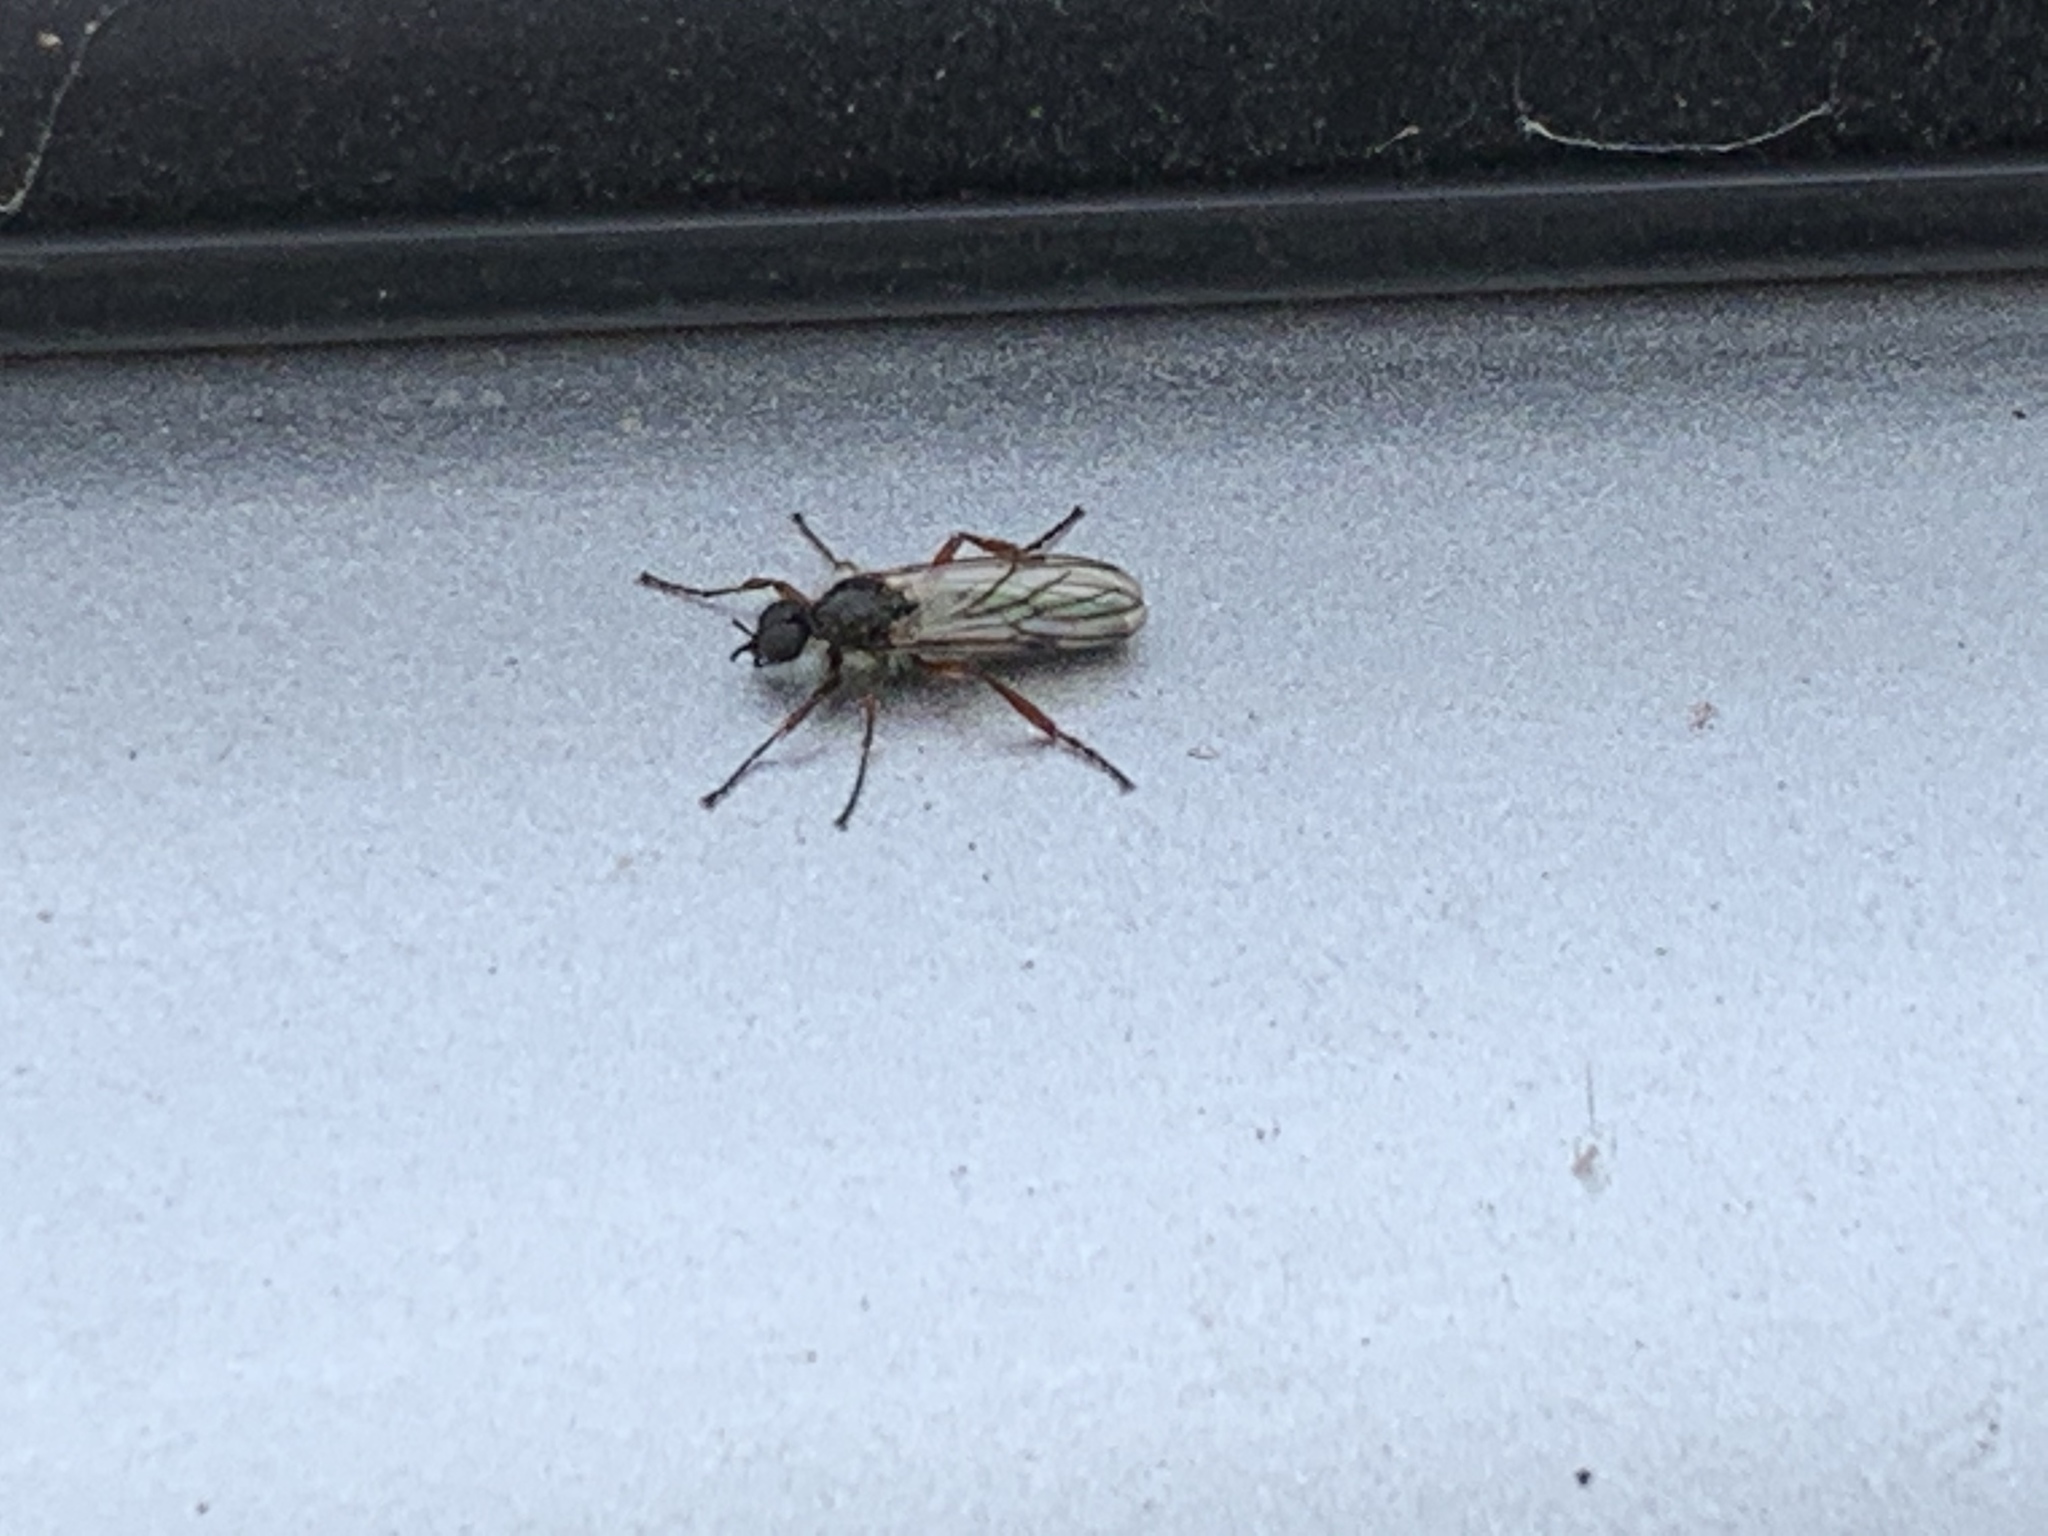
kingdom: Animalia
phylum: Arthropoda
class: Insecta
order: Diptera
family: Bibionidae
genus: Bibio
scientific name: Bibio alexanderi
